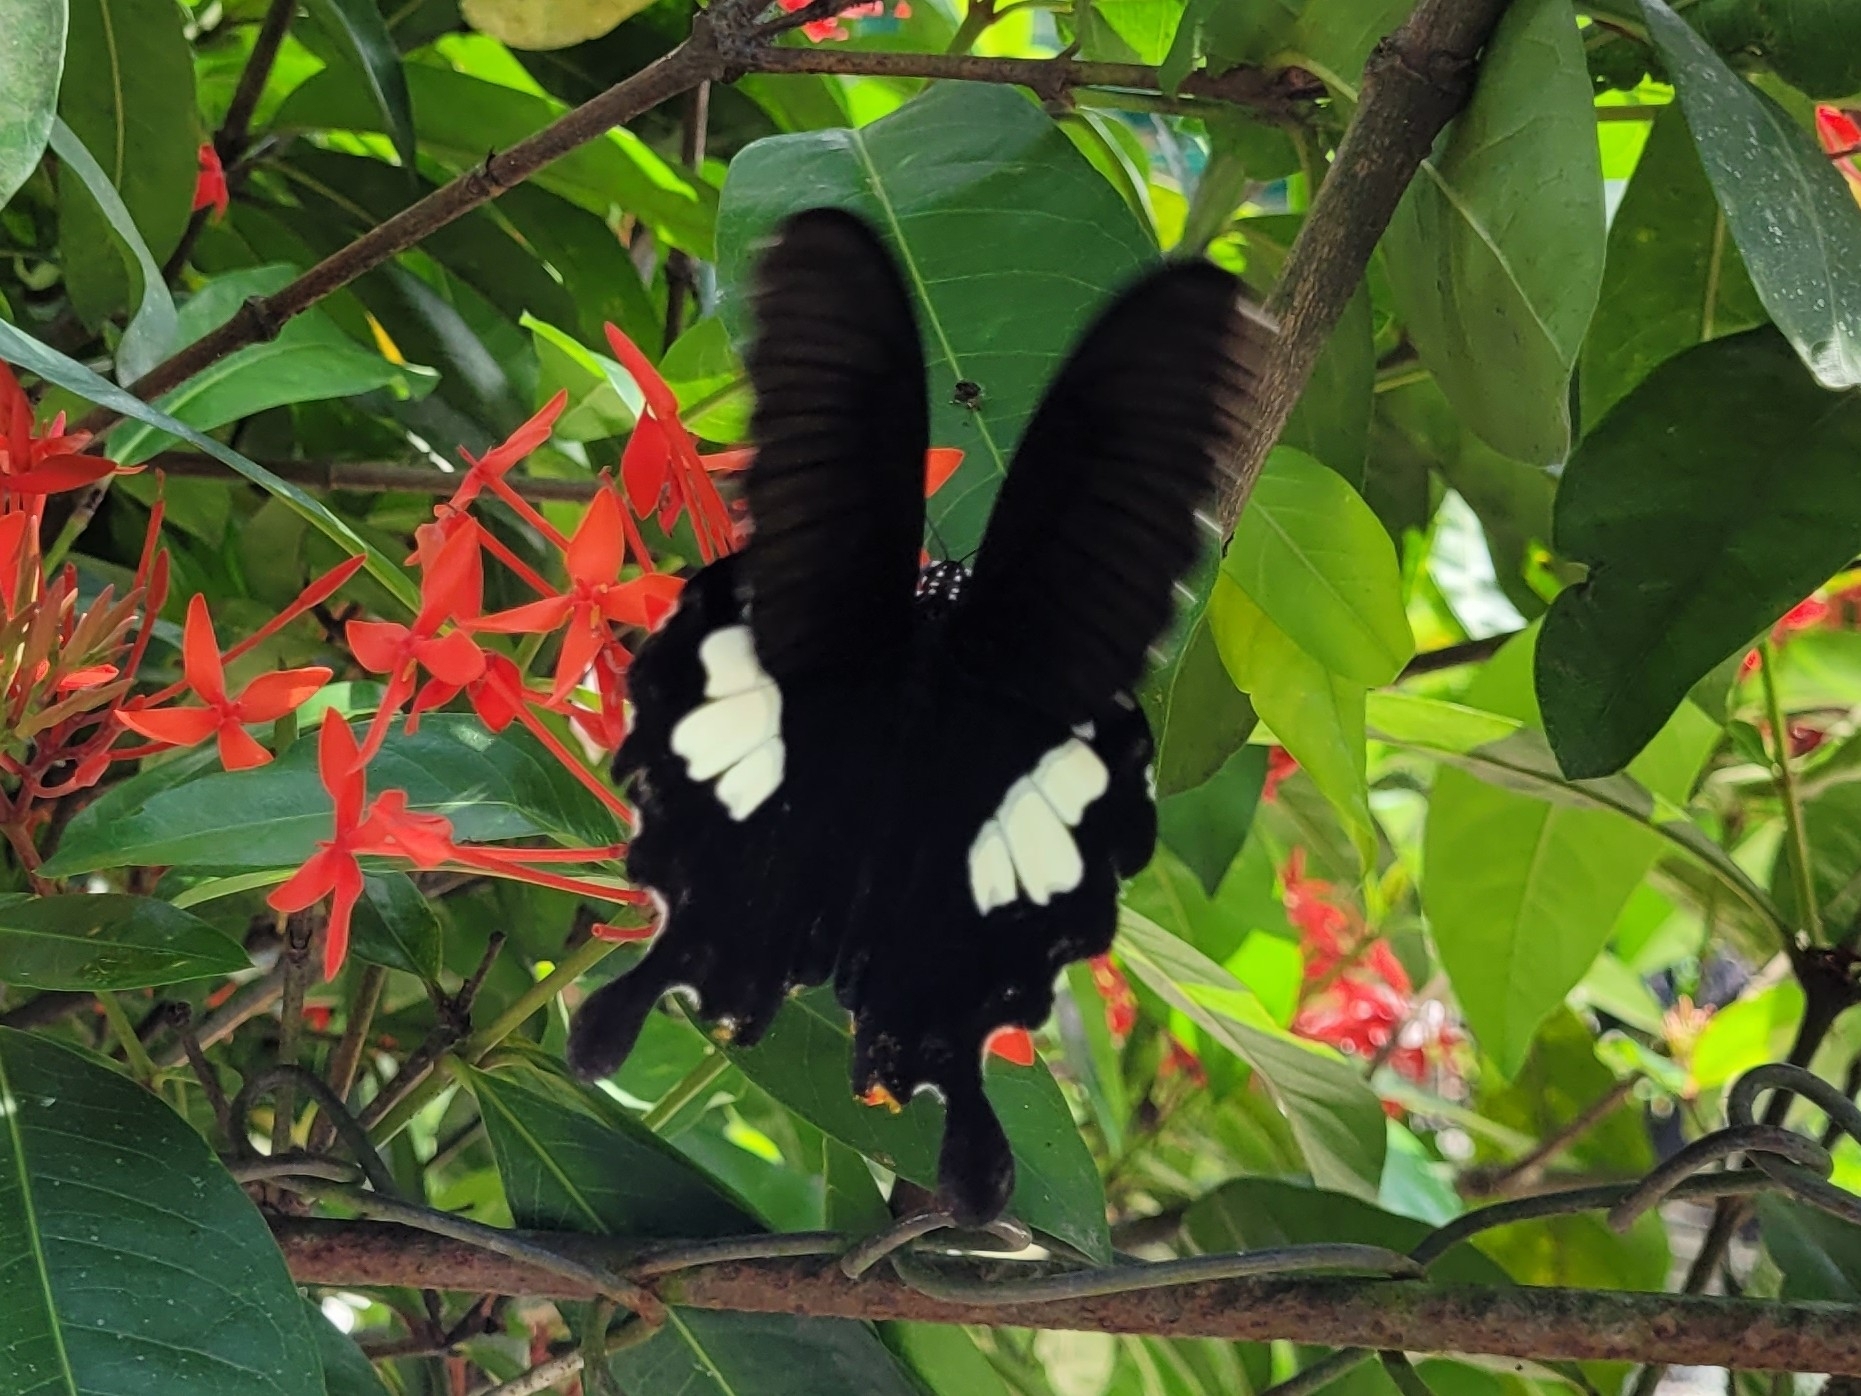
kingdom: Animalia
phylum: Arthropoda
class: Insecta
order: Lepidoptera
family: Papilionidae
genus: Atrophaneura
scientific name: Atrophaneura varuna
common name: Common batwing
